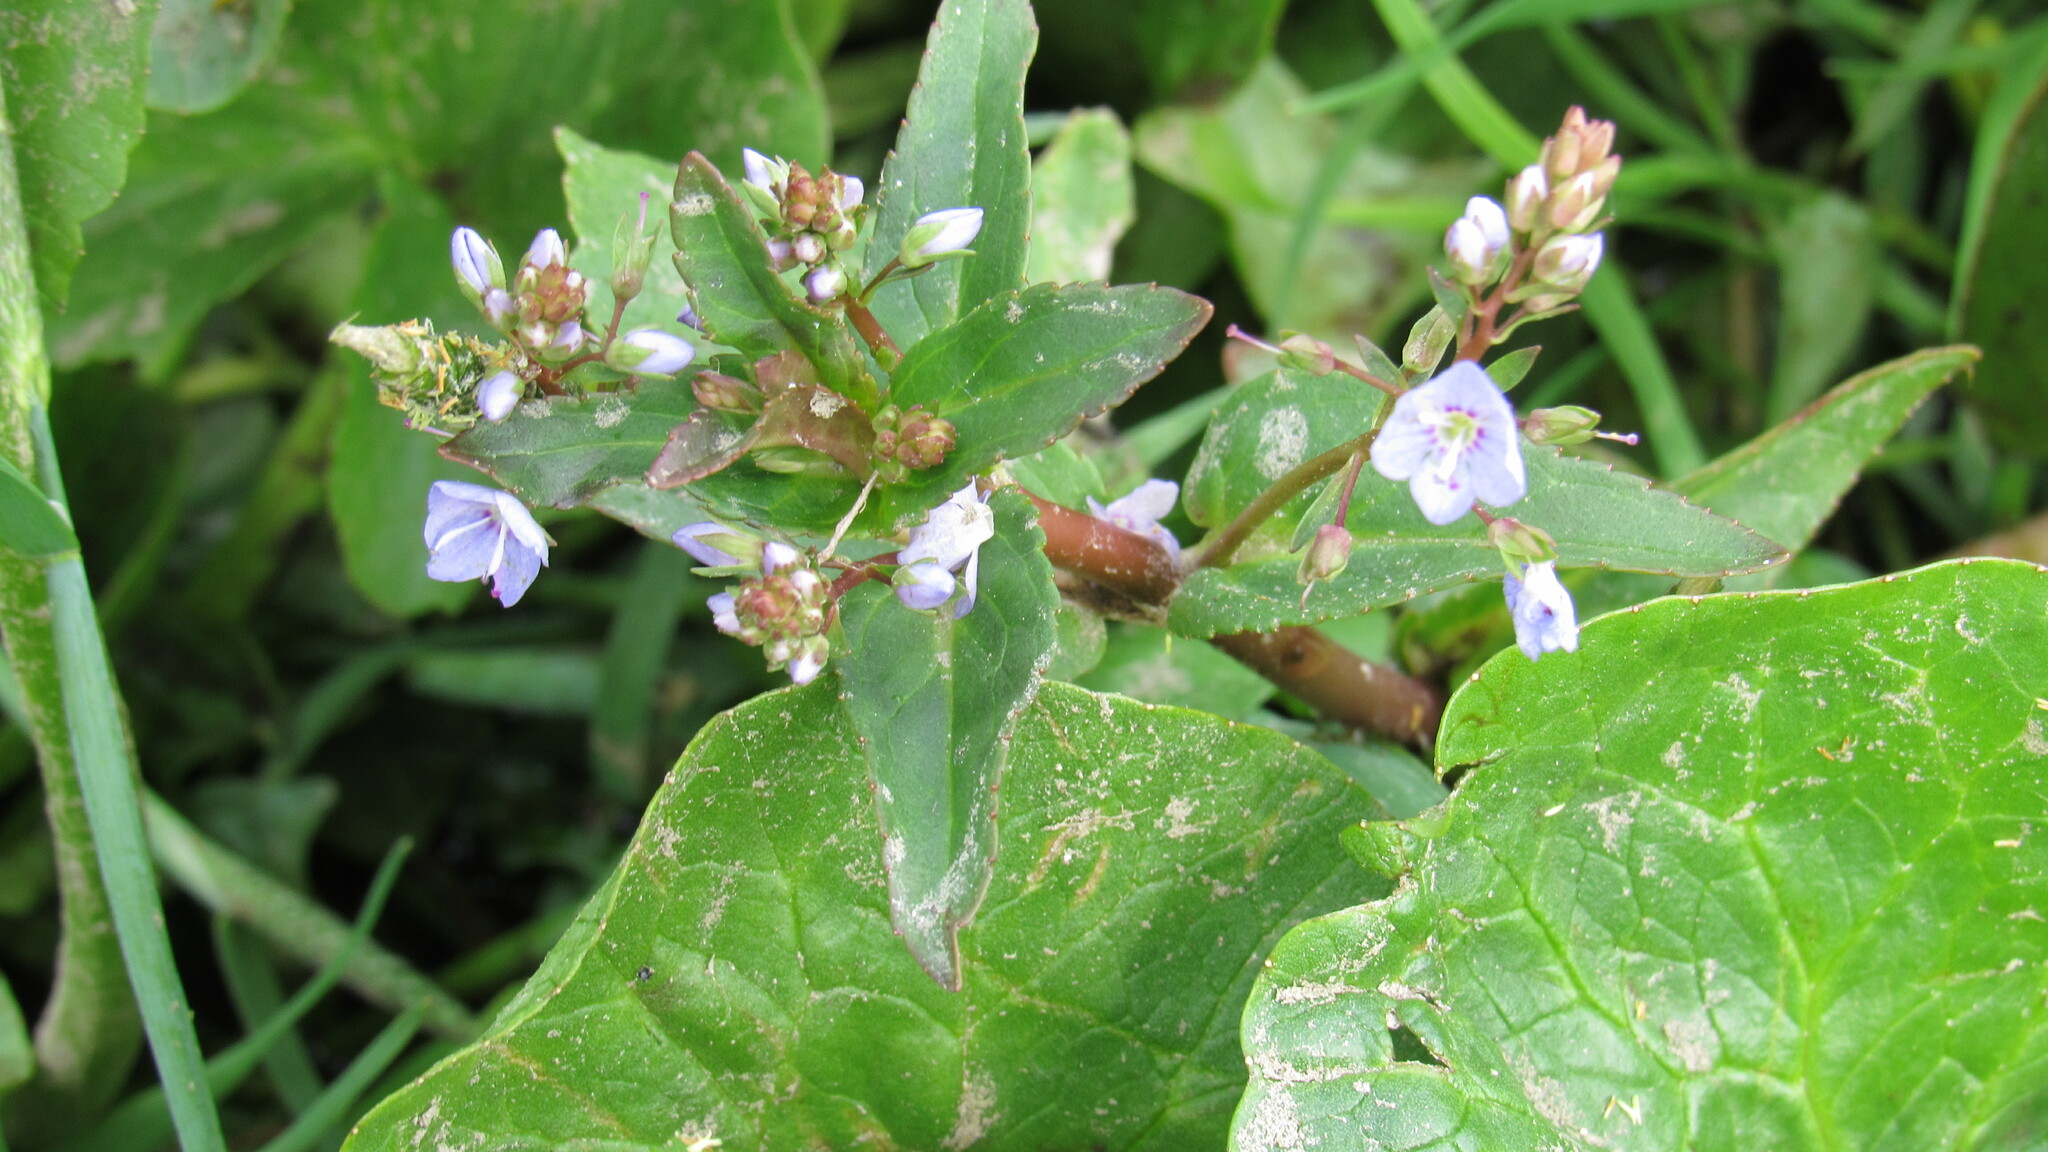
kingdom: Plantae
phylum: Tracheophyta
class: Magnoliopsida
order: Lamiales
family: Plantaginaceae
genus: Veronica
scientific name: Veronica americana
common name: American brooklime
